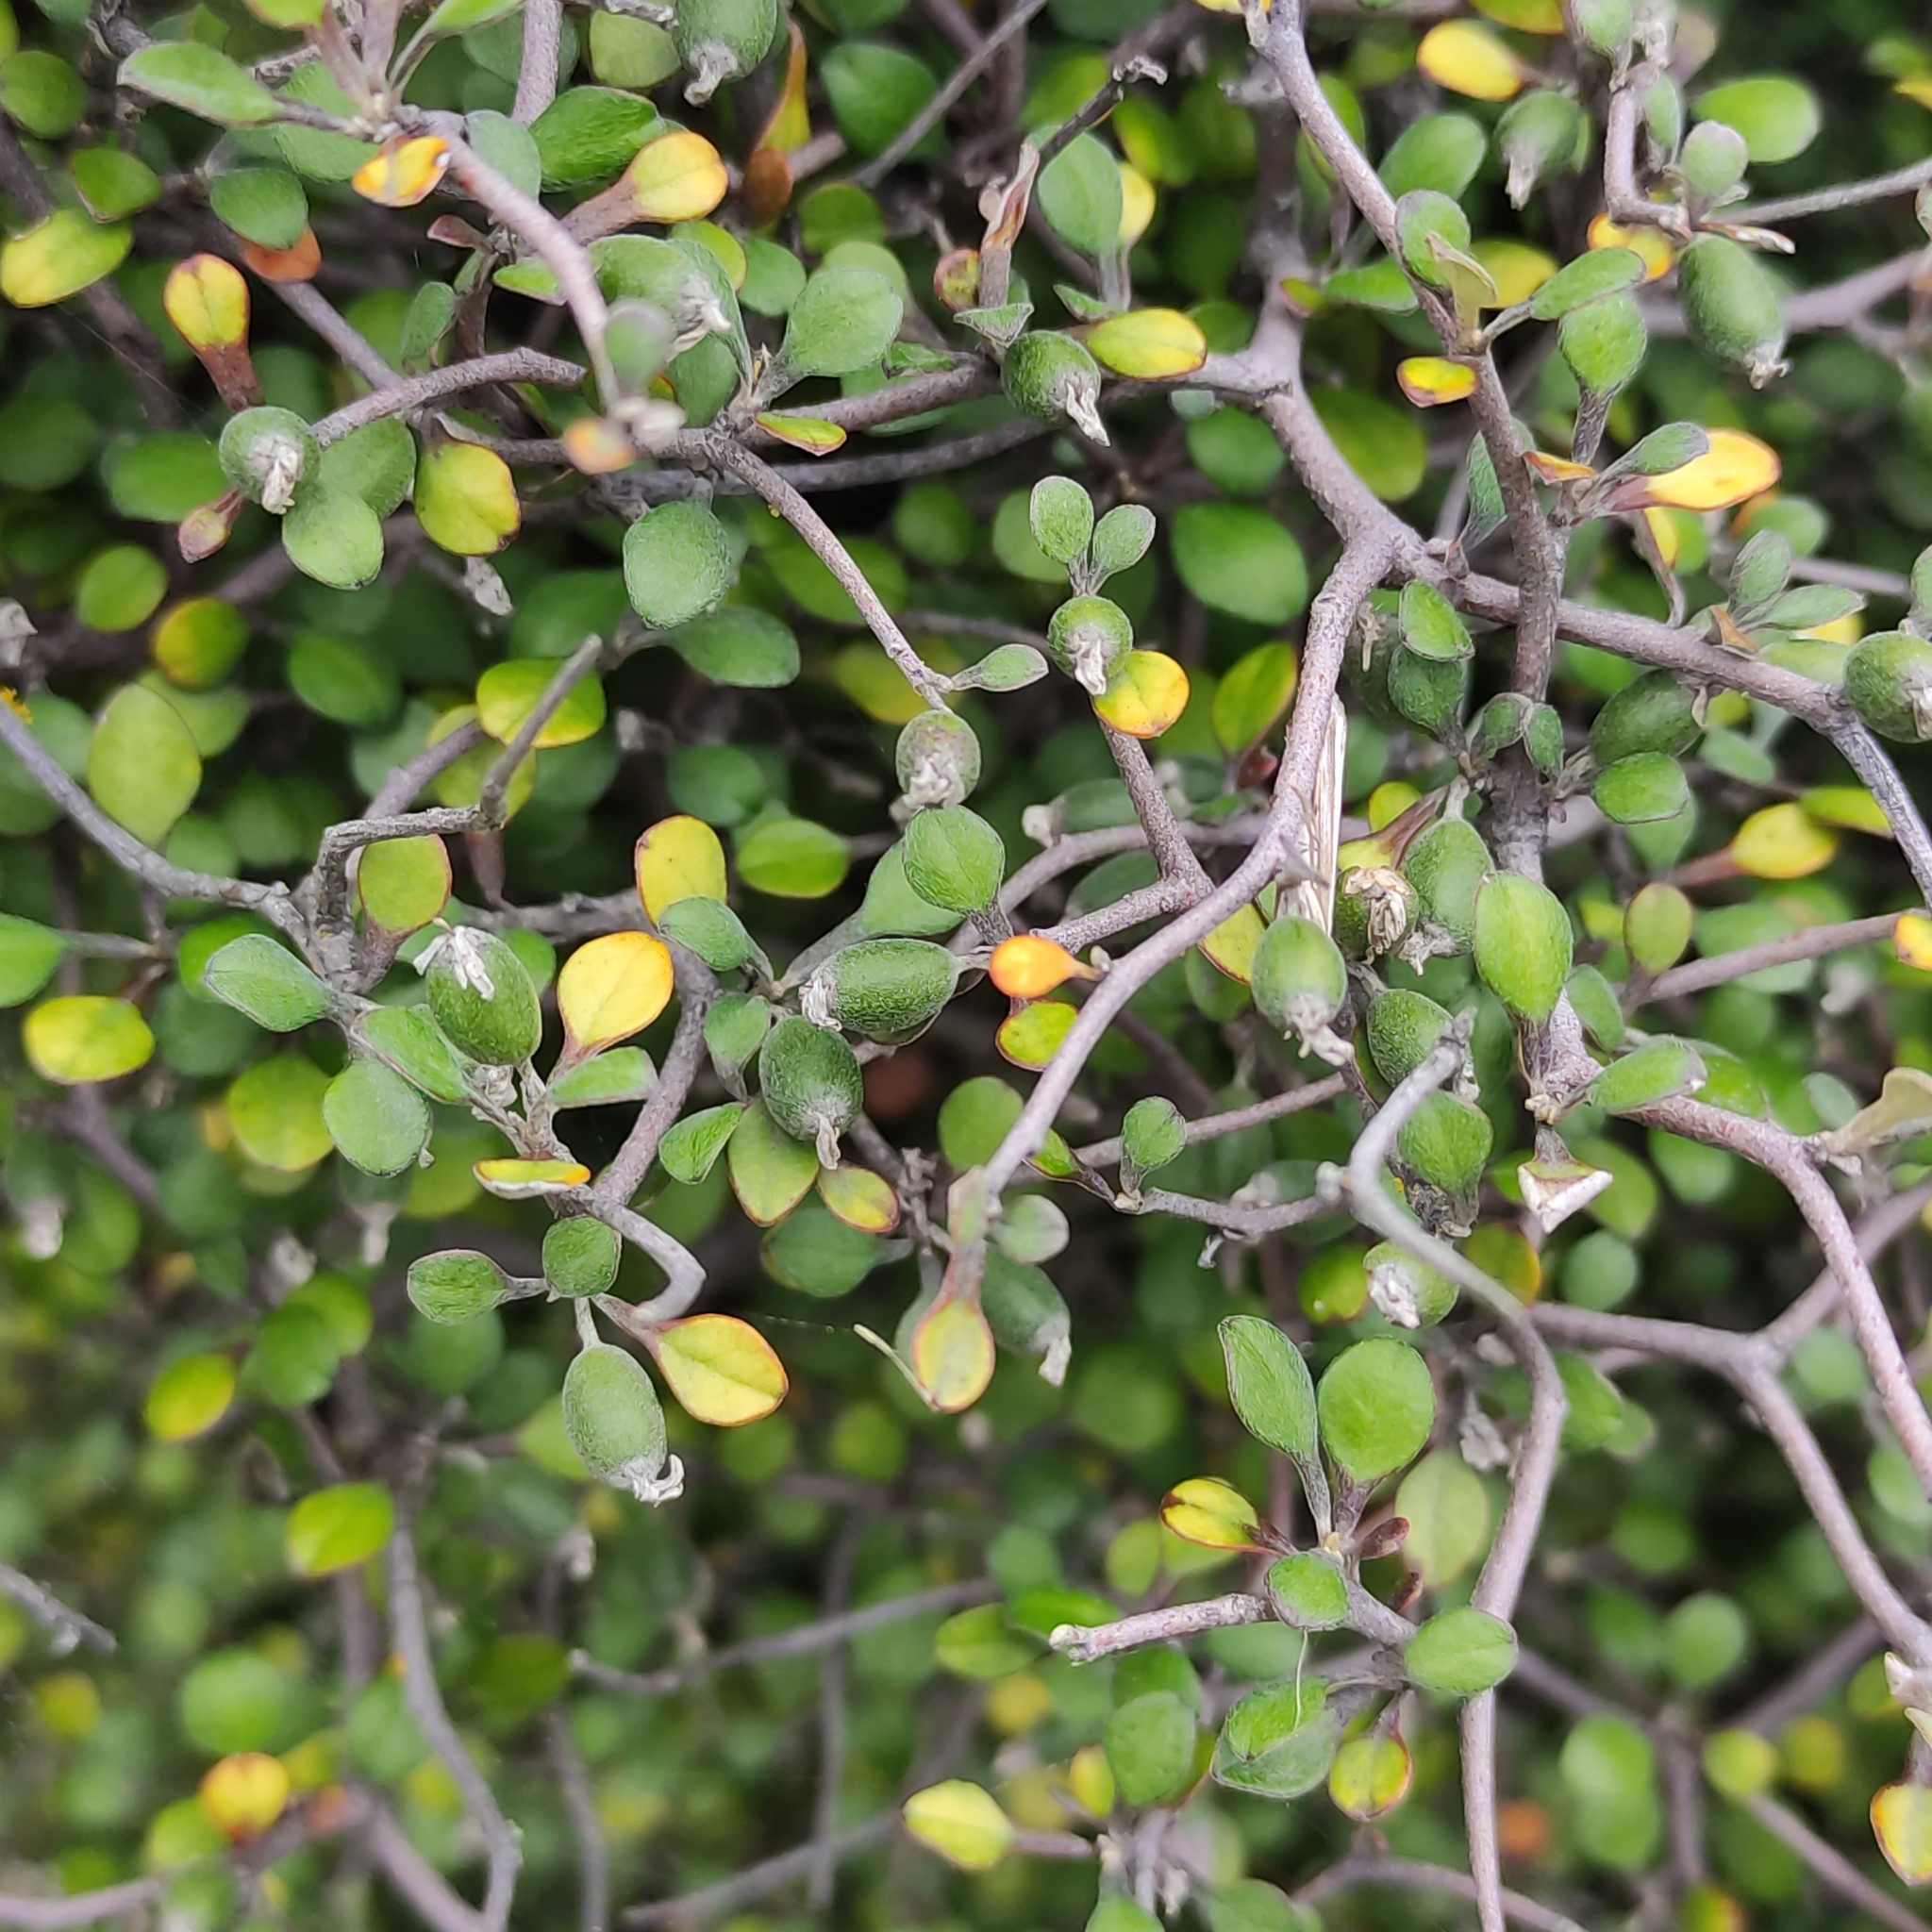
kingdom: Plantae
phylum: Tracheophyta
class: Magnoliopsida
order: Asterales
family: Argophyllaceae
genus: Corokia
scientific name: Corokia cotoneaster
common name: Wire nettingbush
